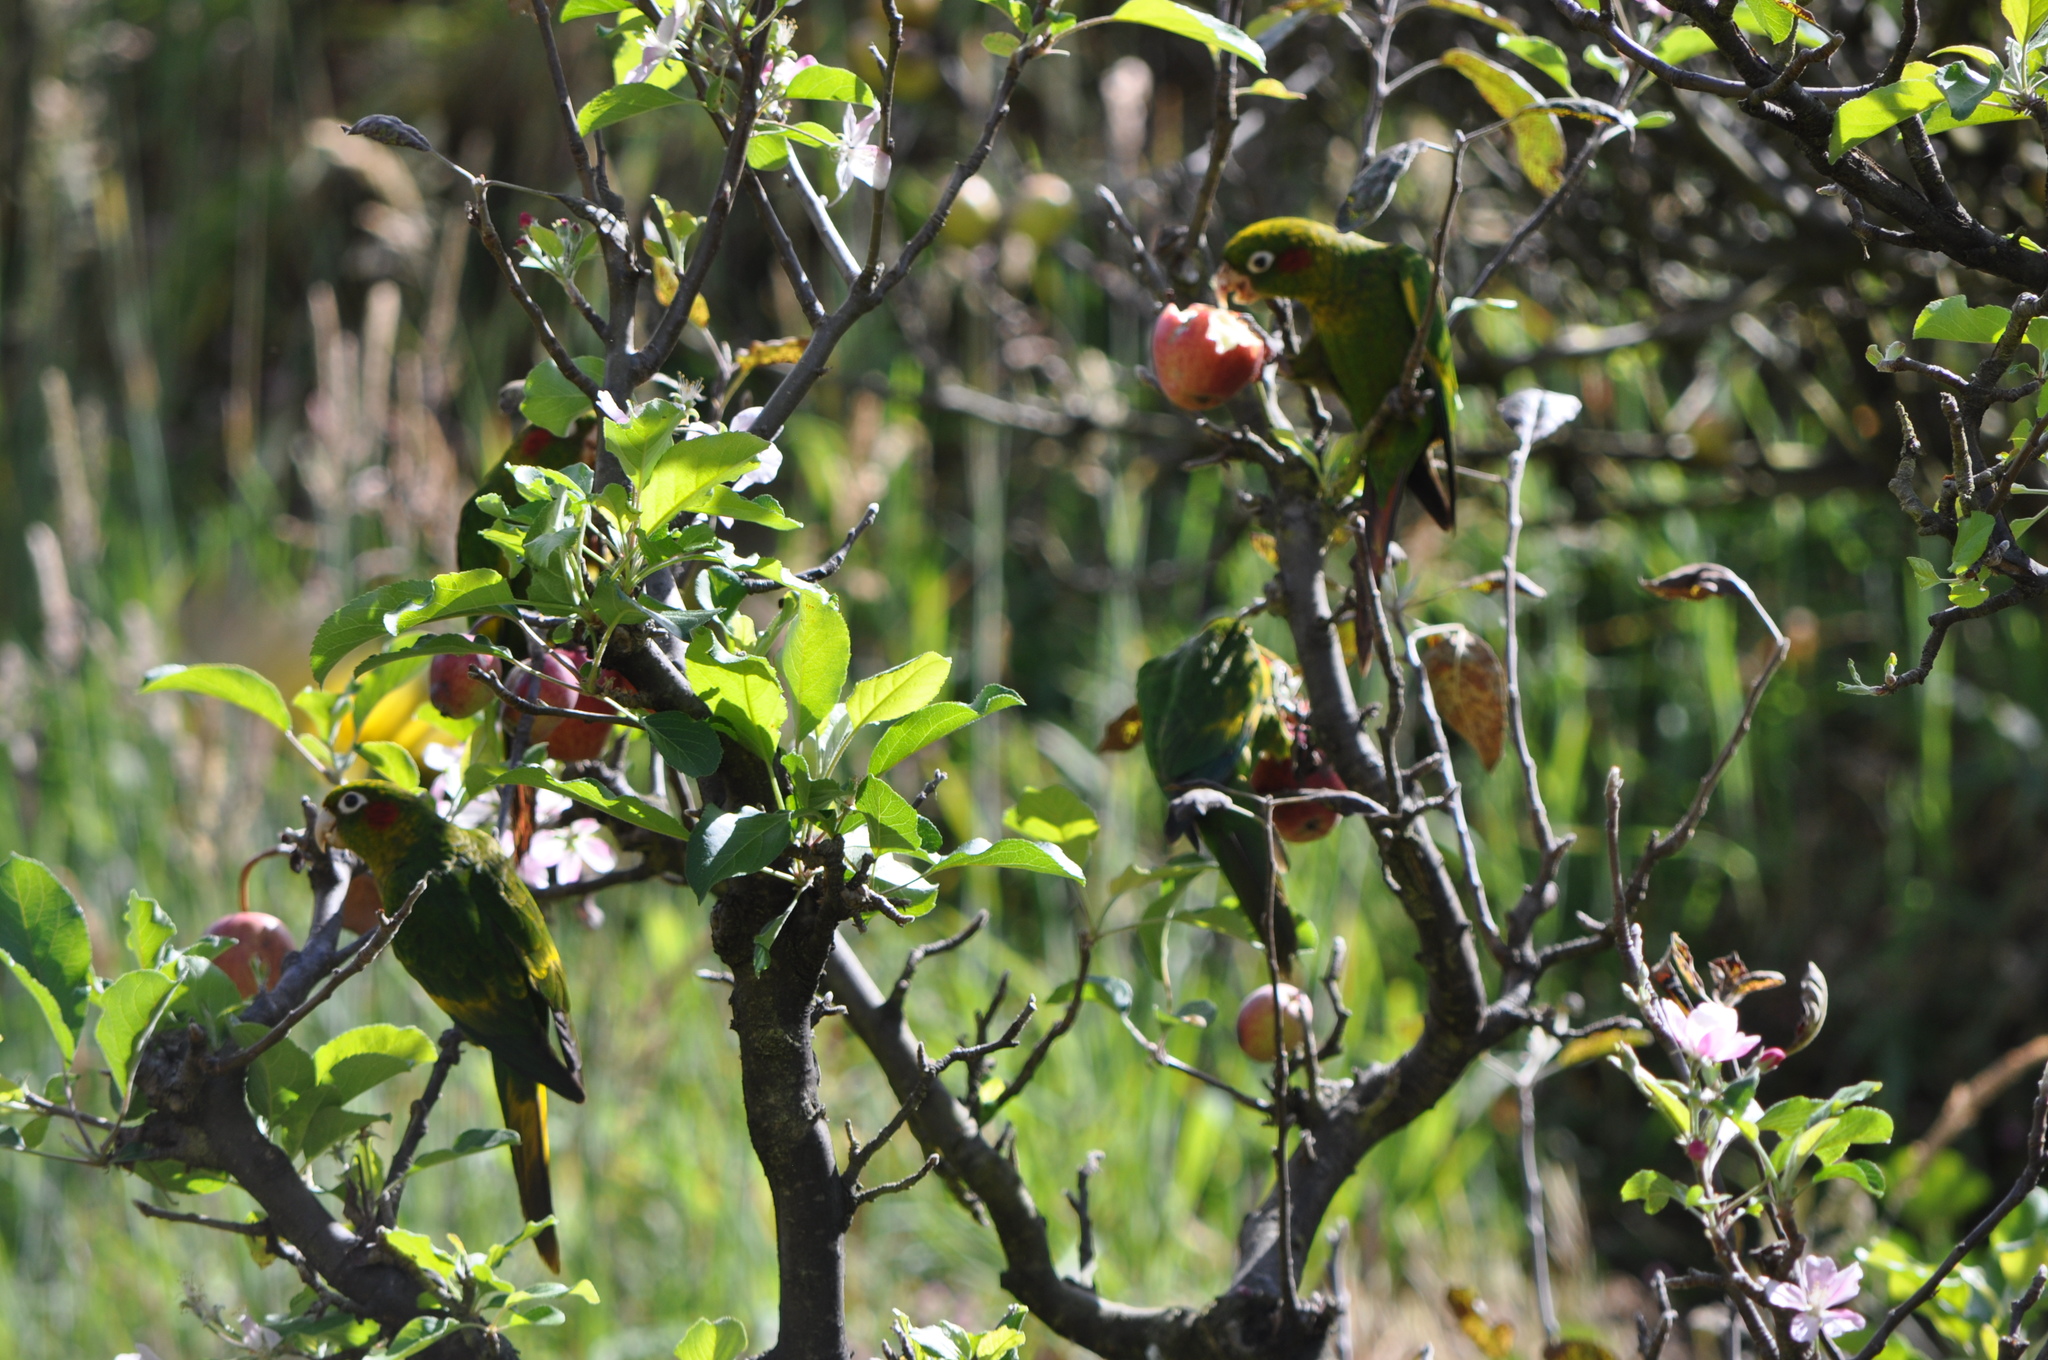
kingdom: Animalia
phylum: Chordata
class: Aves
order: Psittaciformes
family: Psittacidae
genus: Pyrrhura
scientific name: Pyrrhura hoffmanni
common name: Sulphur-winged parakeet
